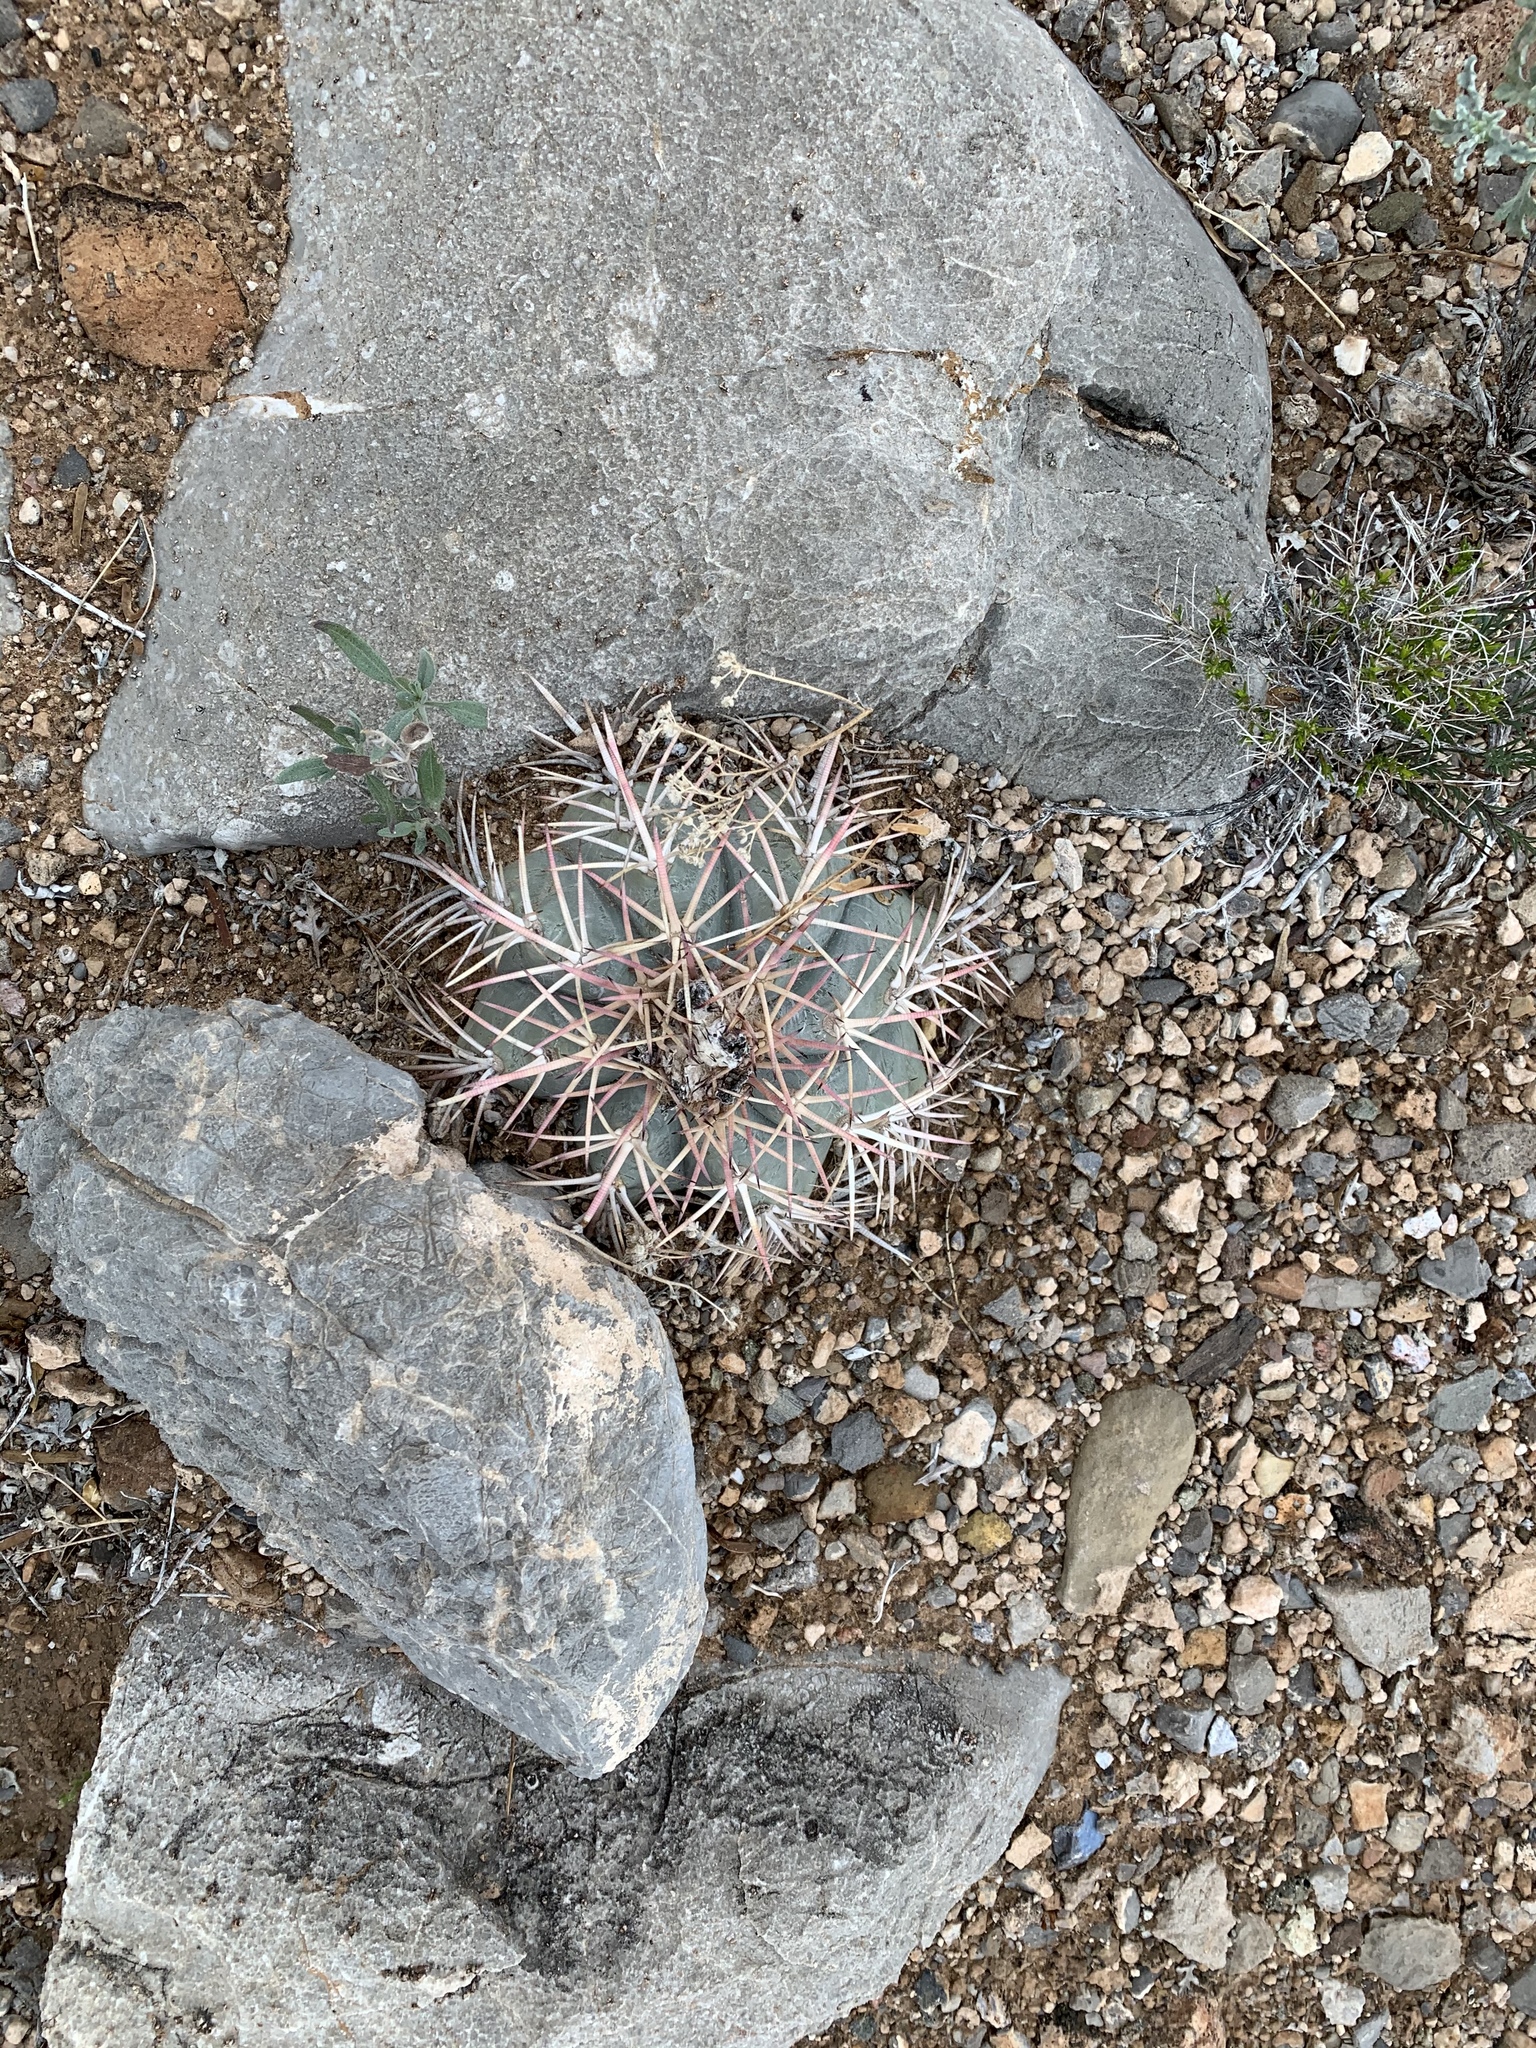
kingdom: Plantae
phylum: Tracheophyta
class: Magnoliopsida
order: Caryophyllales
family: Cactaceae
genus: Echinocactus
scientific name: Echinocactus horizonthalonius
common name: Devilshead
